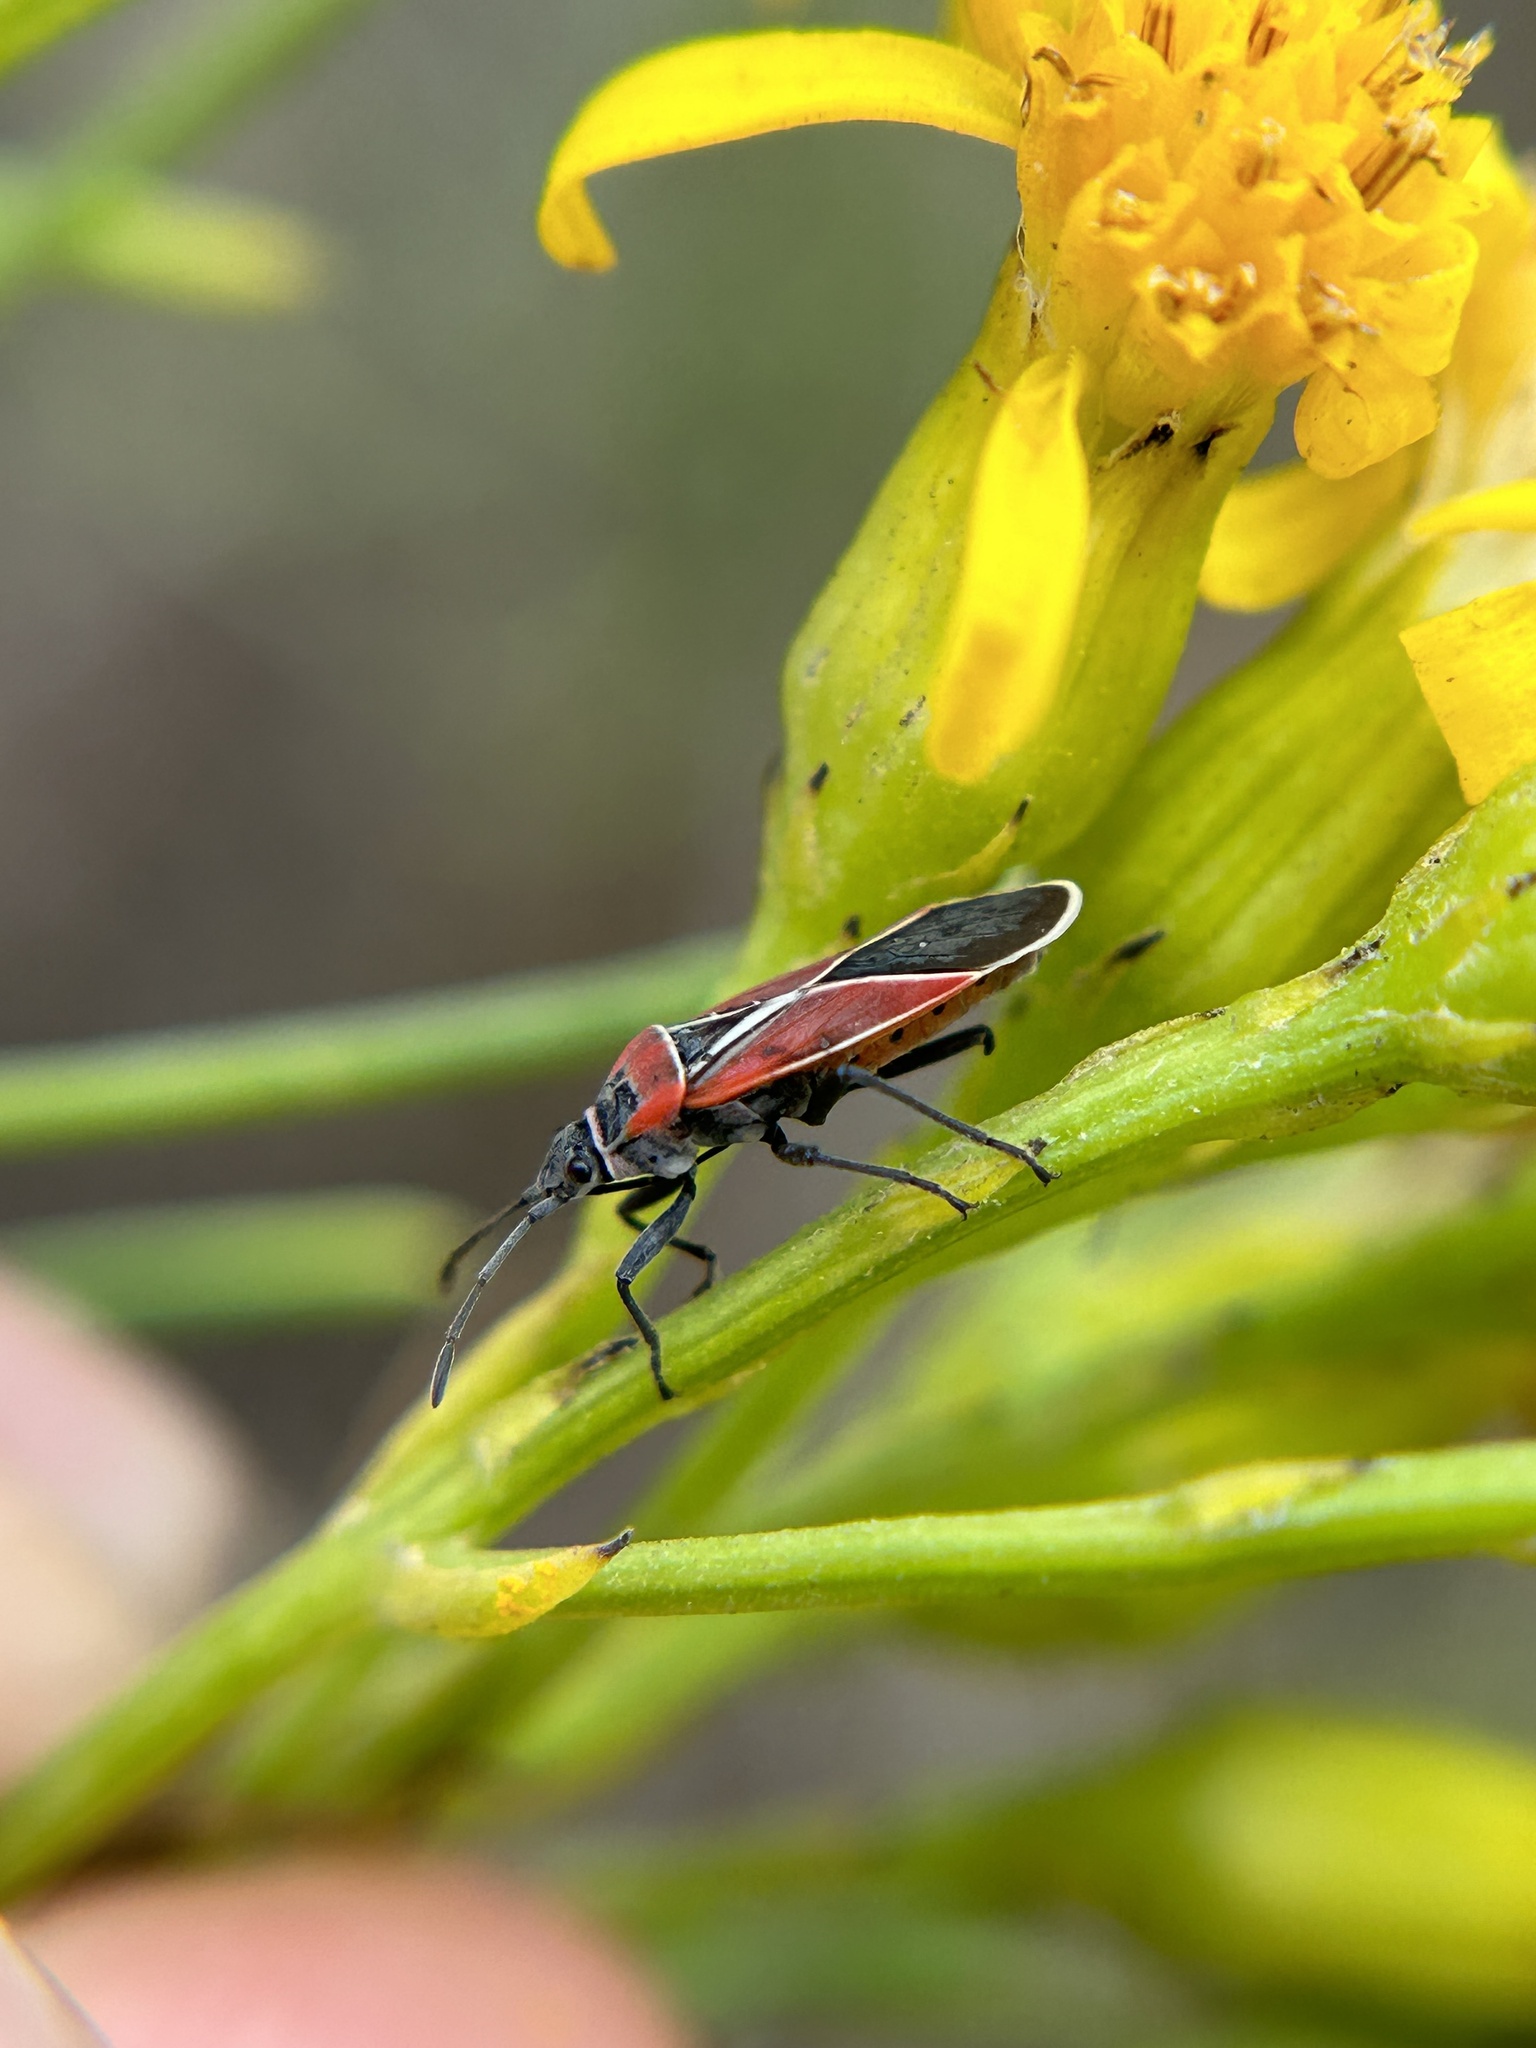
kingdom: Animalia
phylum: Arthropoda
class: Insecta
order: Hemiptera
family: Lygaeidae
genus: Neacoryphus
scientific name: Neacoryphus bicrucis
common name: Lygaeid bug
